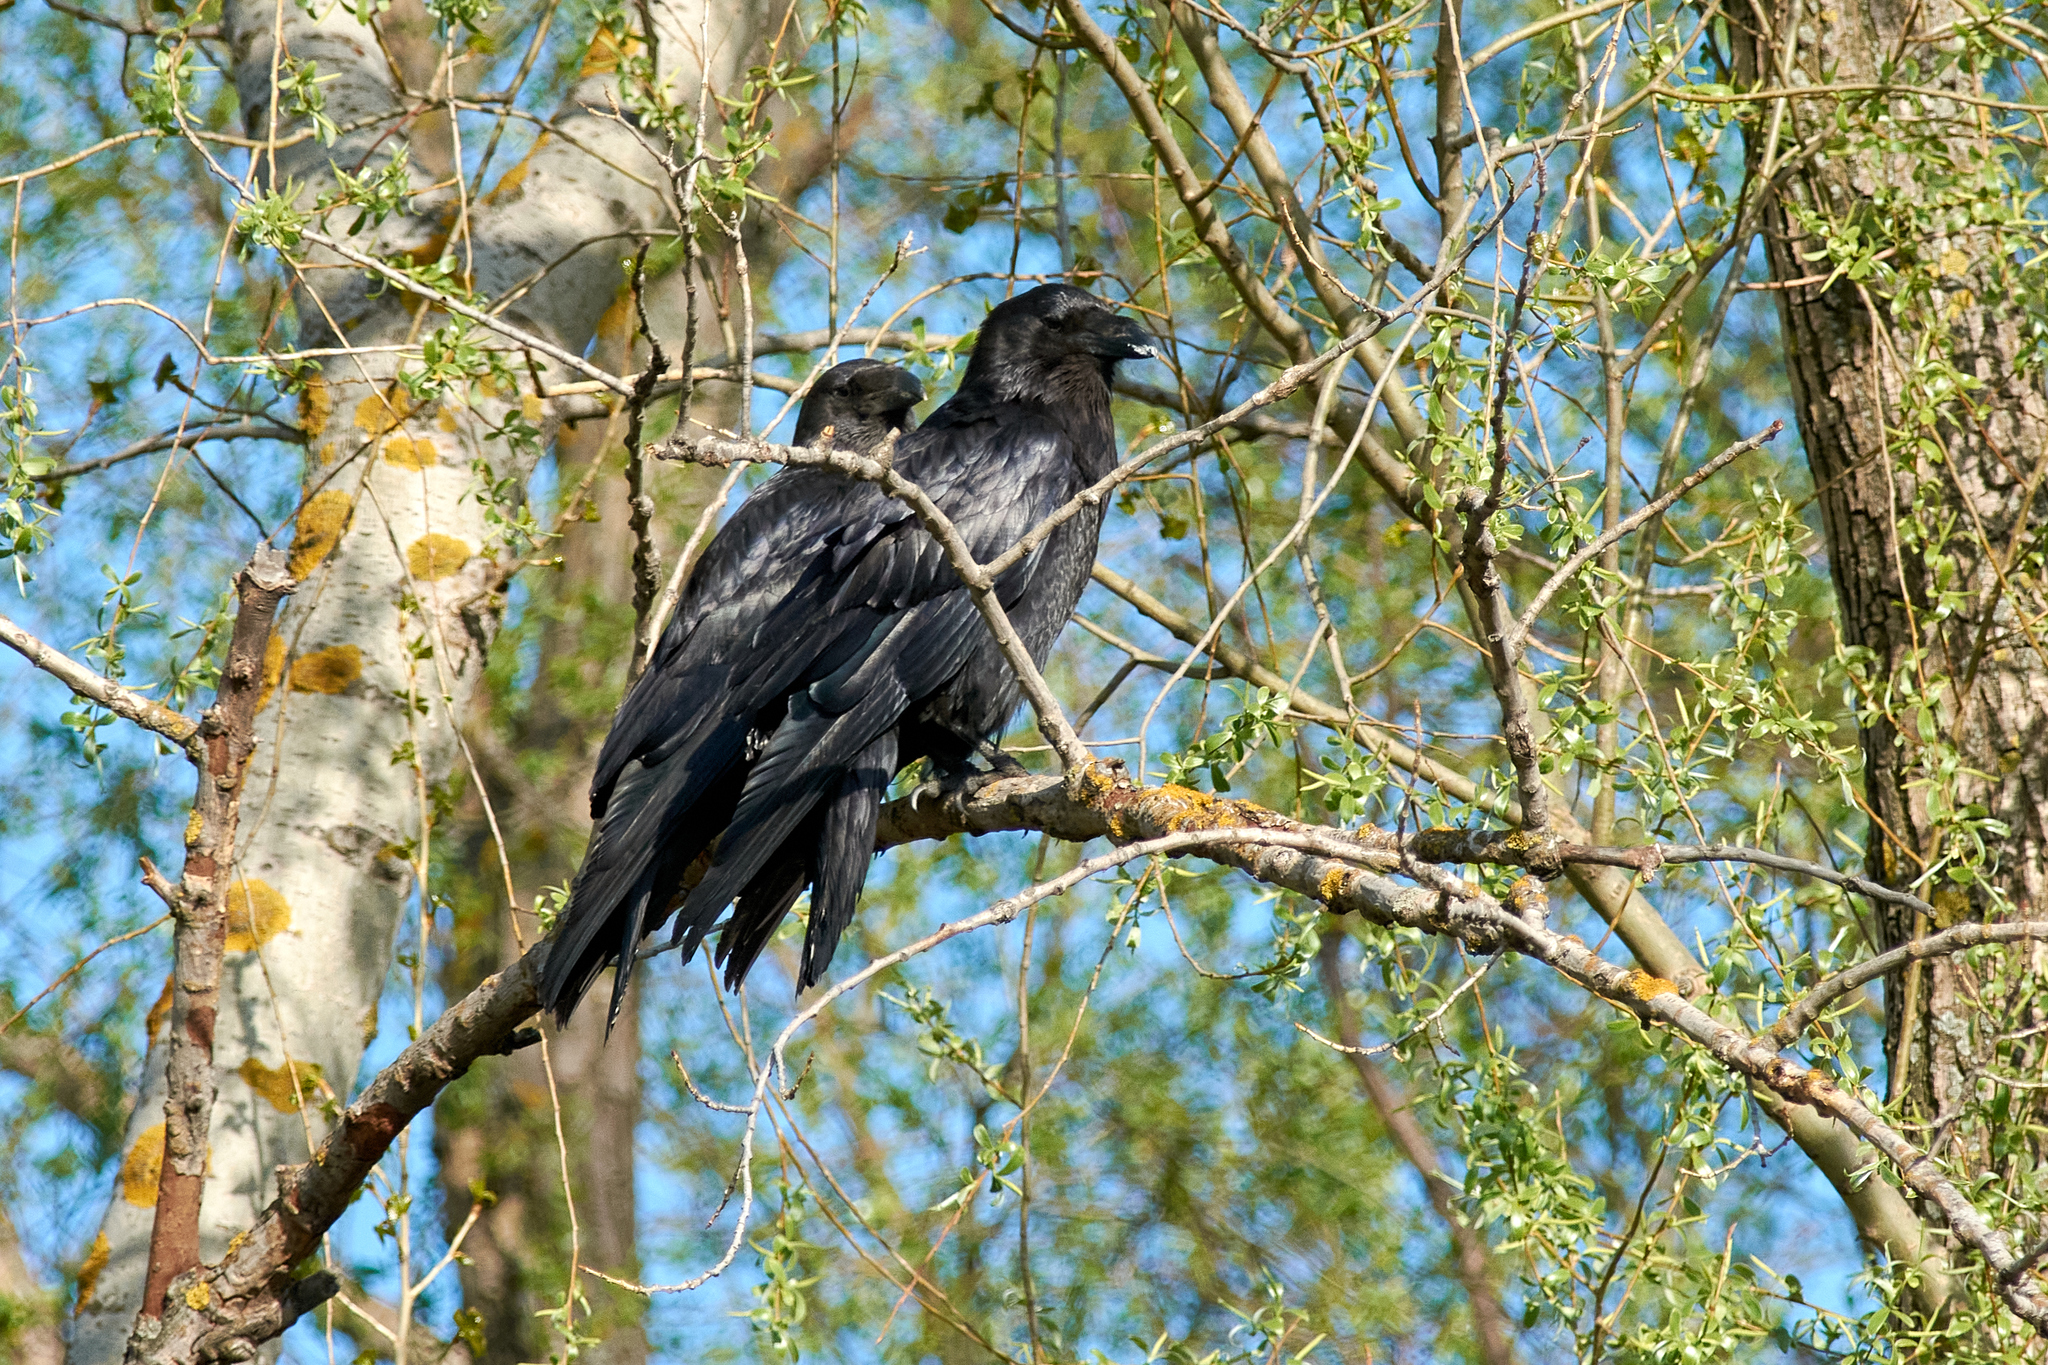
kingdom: Animalia
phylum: Chordata
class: Aves
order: Passeriformes
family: Corvidae
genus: Corvus
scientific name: Corvus corax
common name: Common raven
